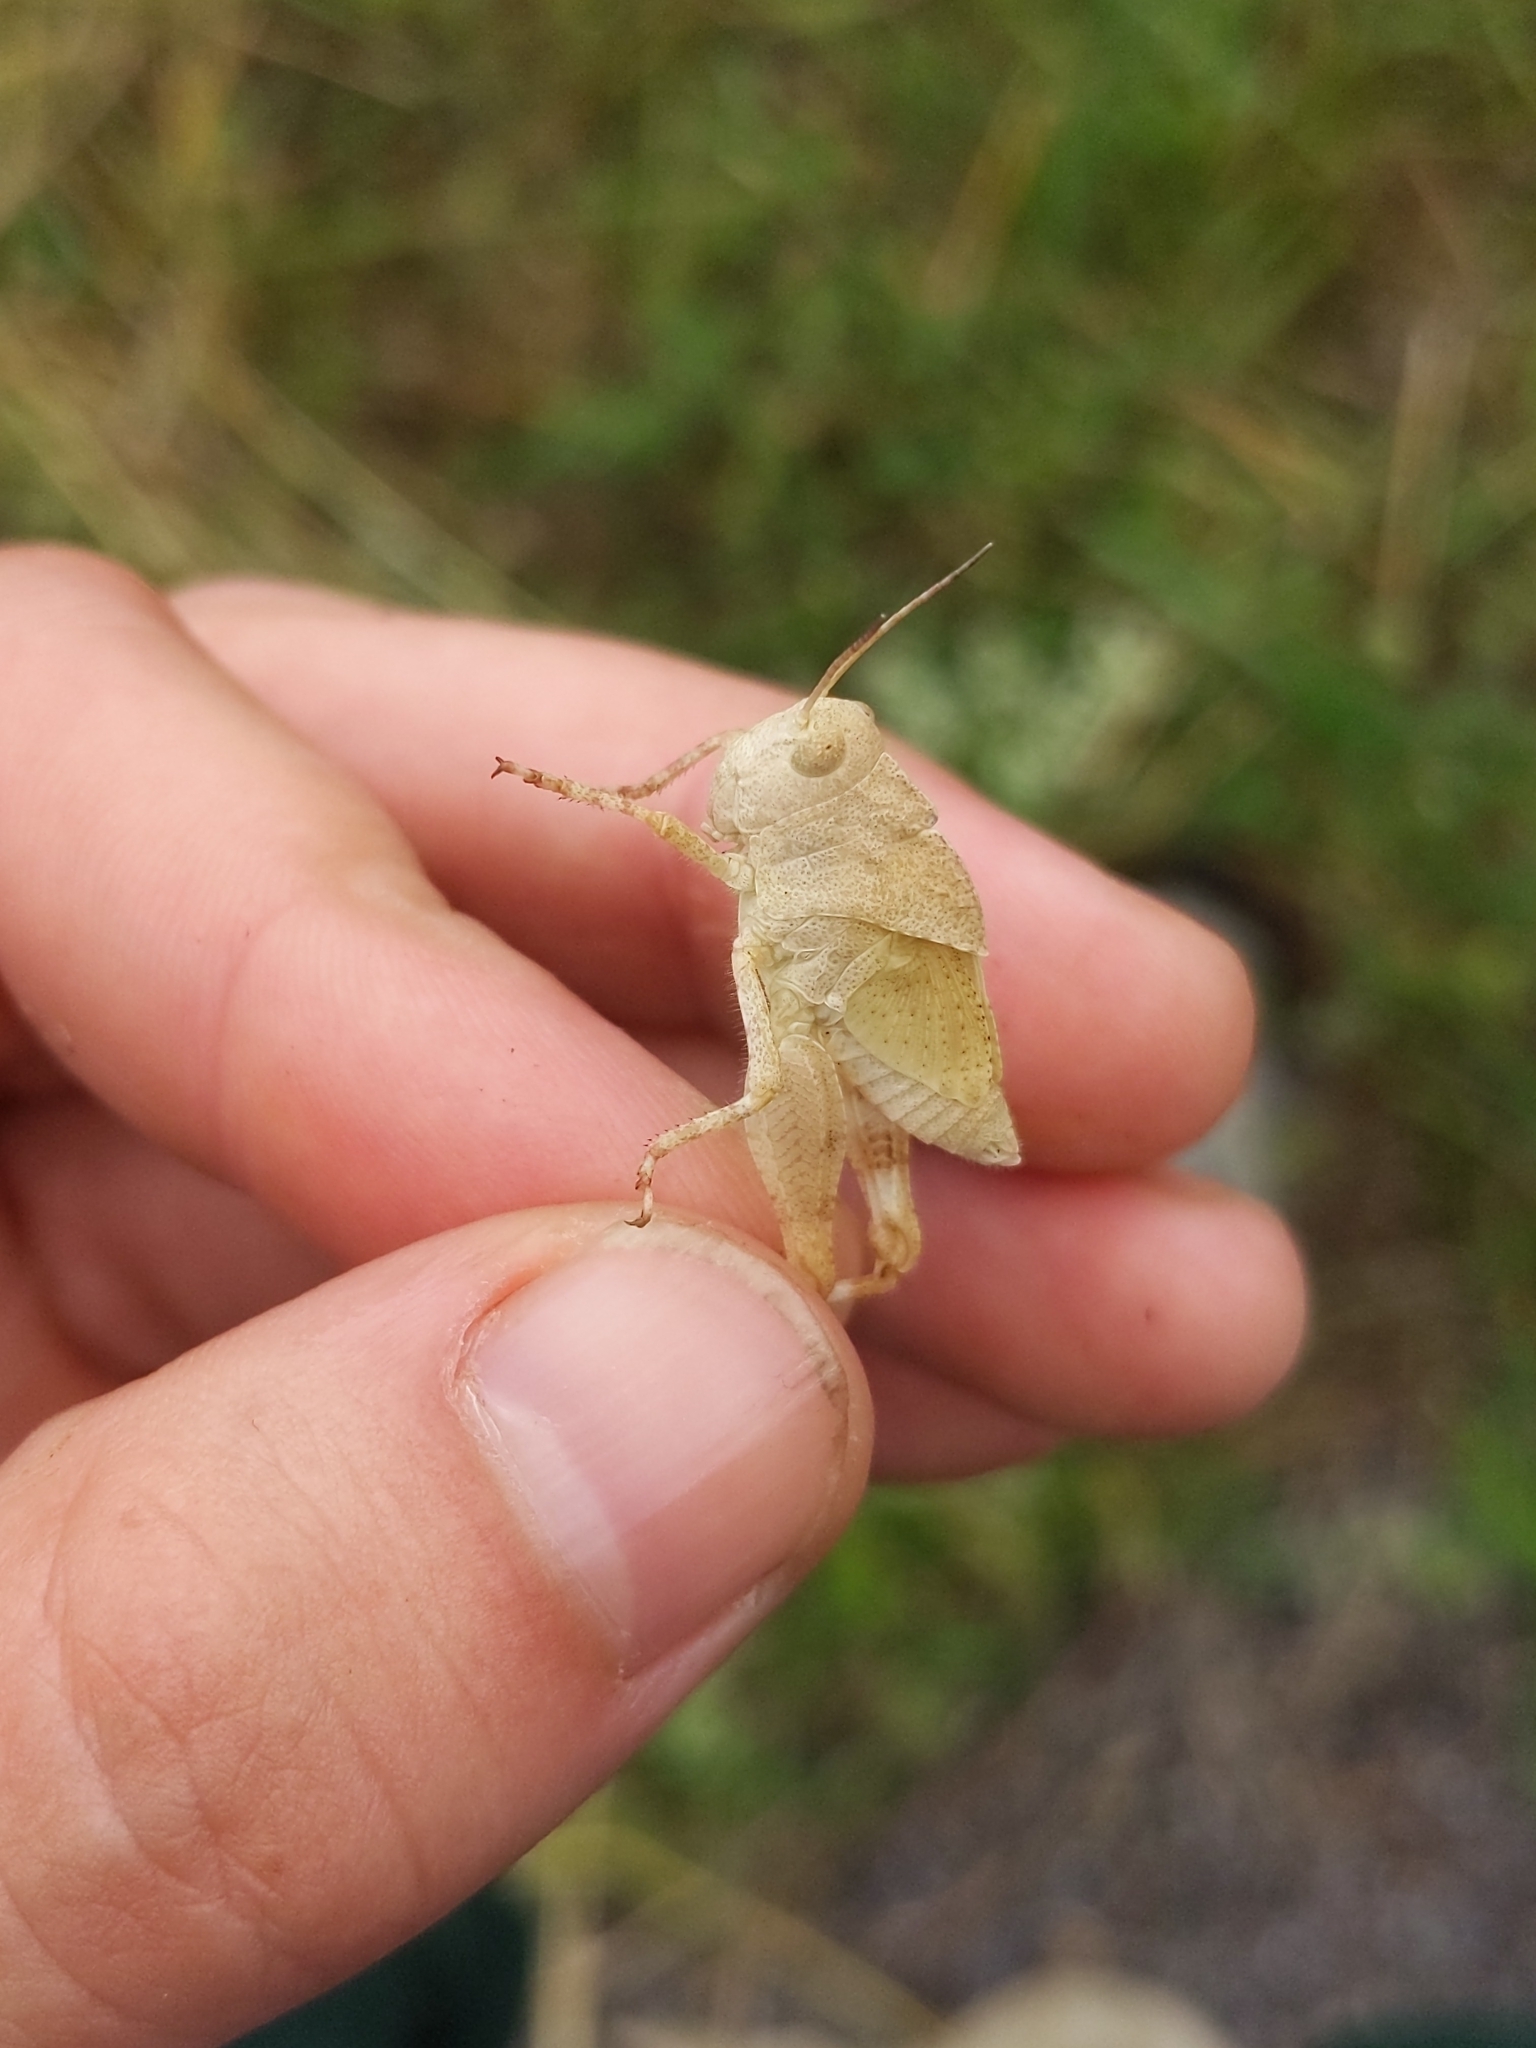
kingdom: Animalia
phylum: Arthropoda
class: Insecta
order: Orthoptera
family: Acrididae
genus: Dissosteira
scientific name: Dissosteira carolina
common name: Carolina grasshopper
